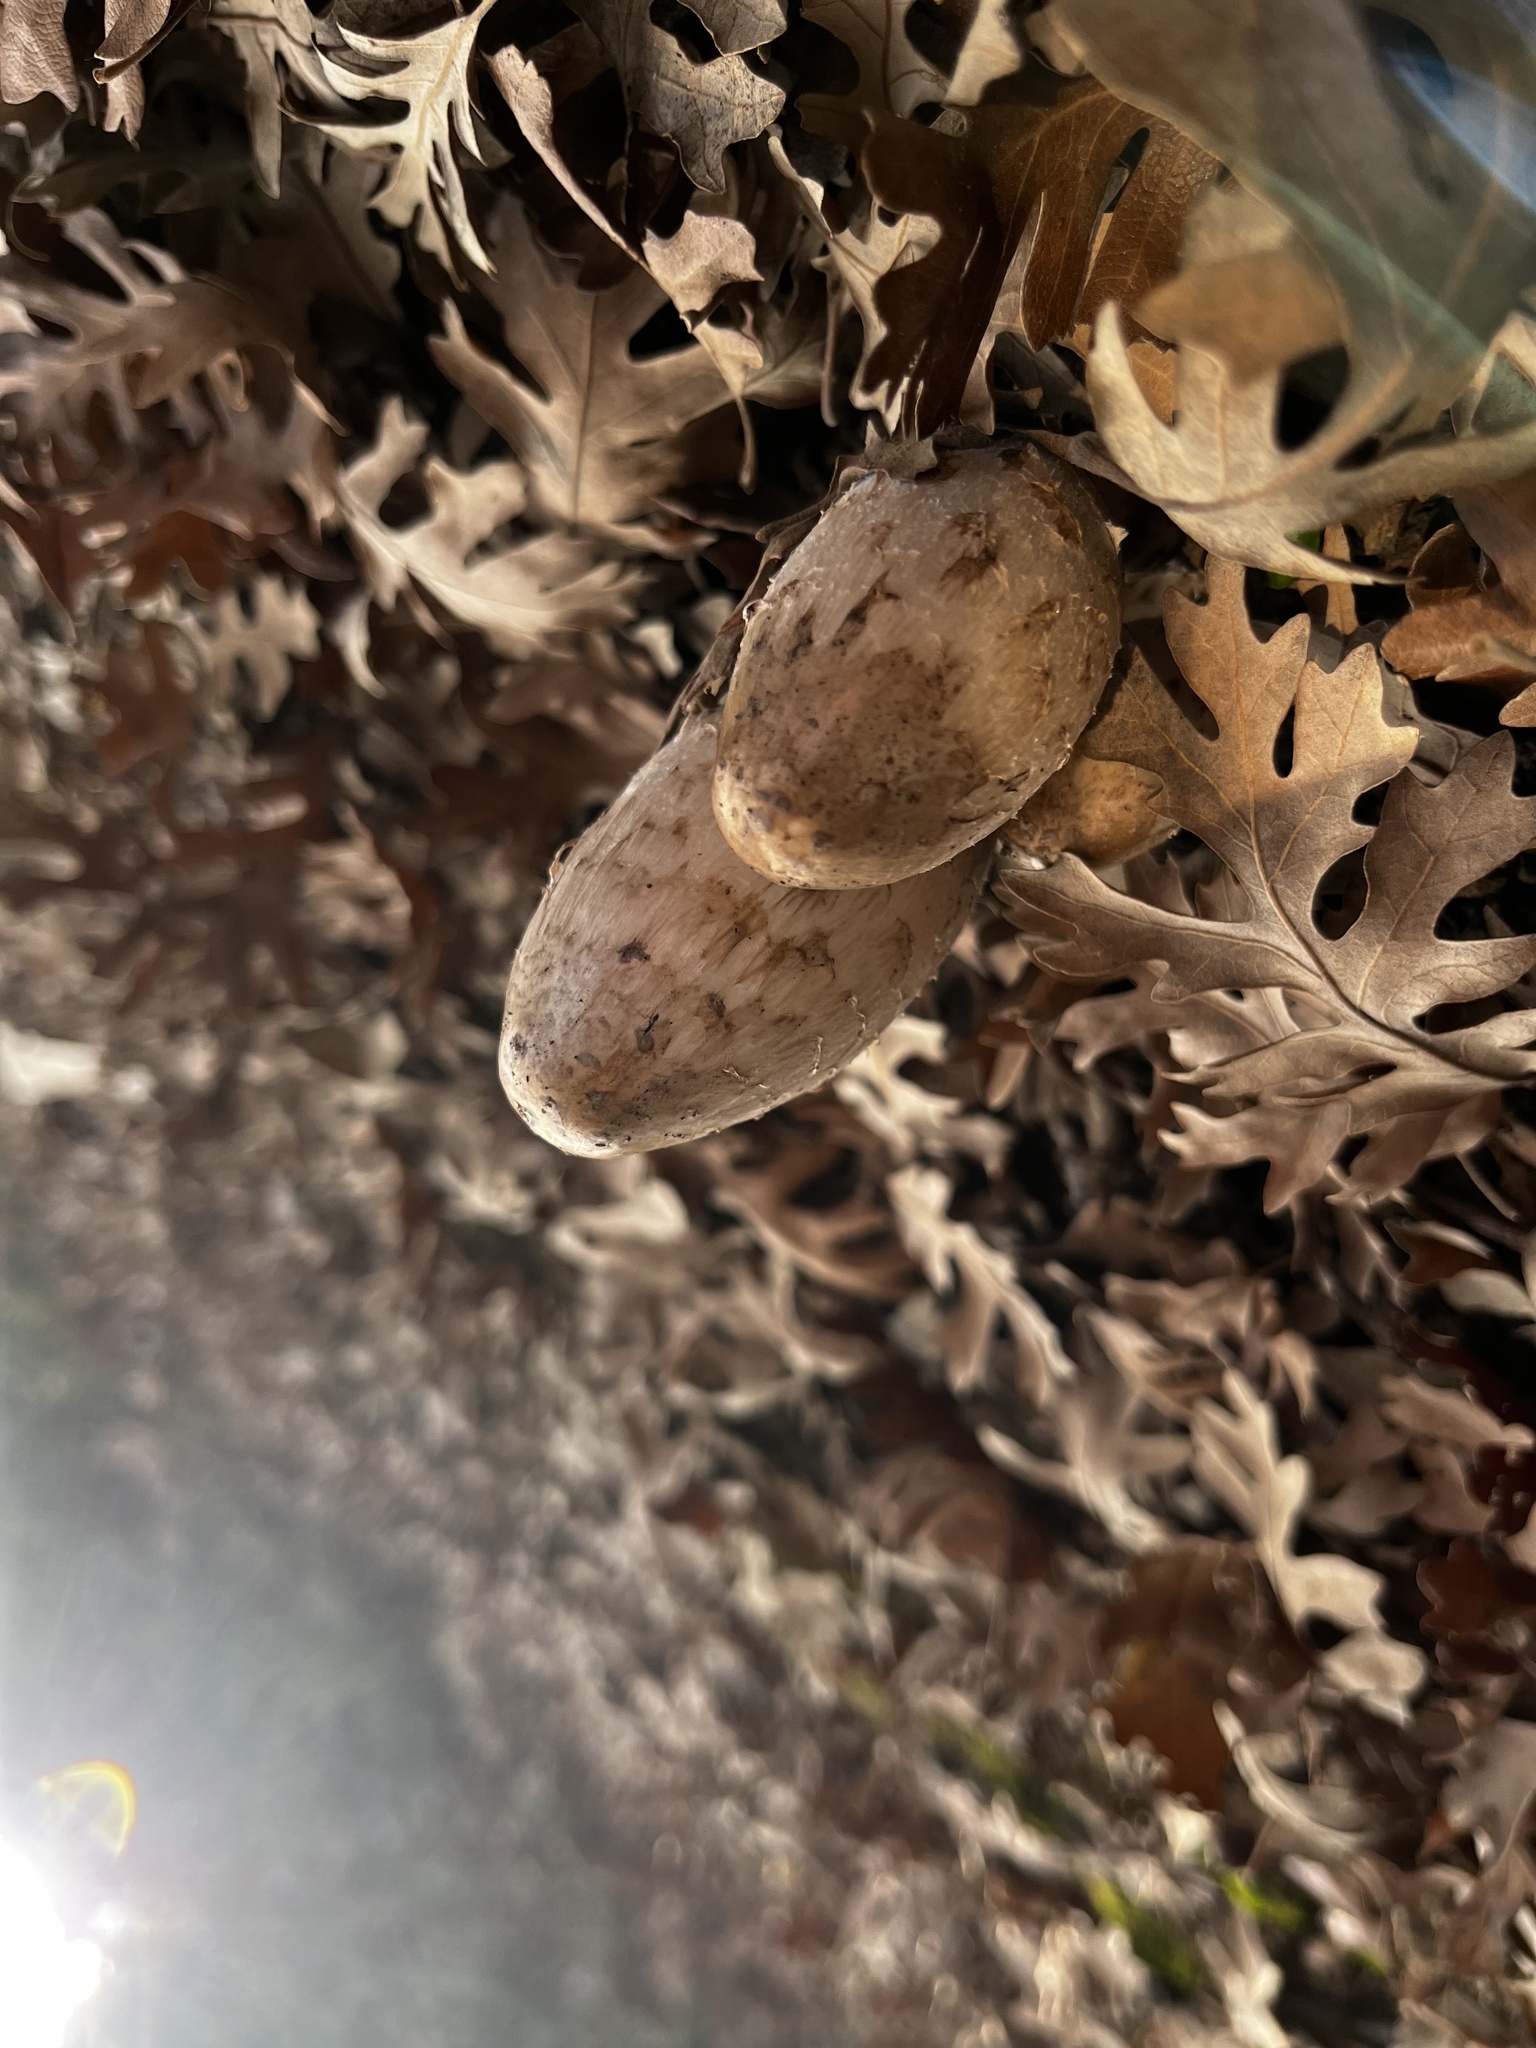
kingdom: Fungi
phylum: Basidiomycota
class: Agaricomycetes
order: Agaricales
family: Agaricaceae
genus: Coprinus
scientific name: Coprinus comatus
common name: Lawyer's wig
